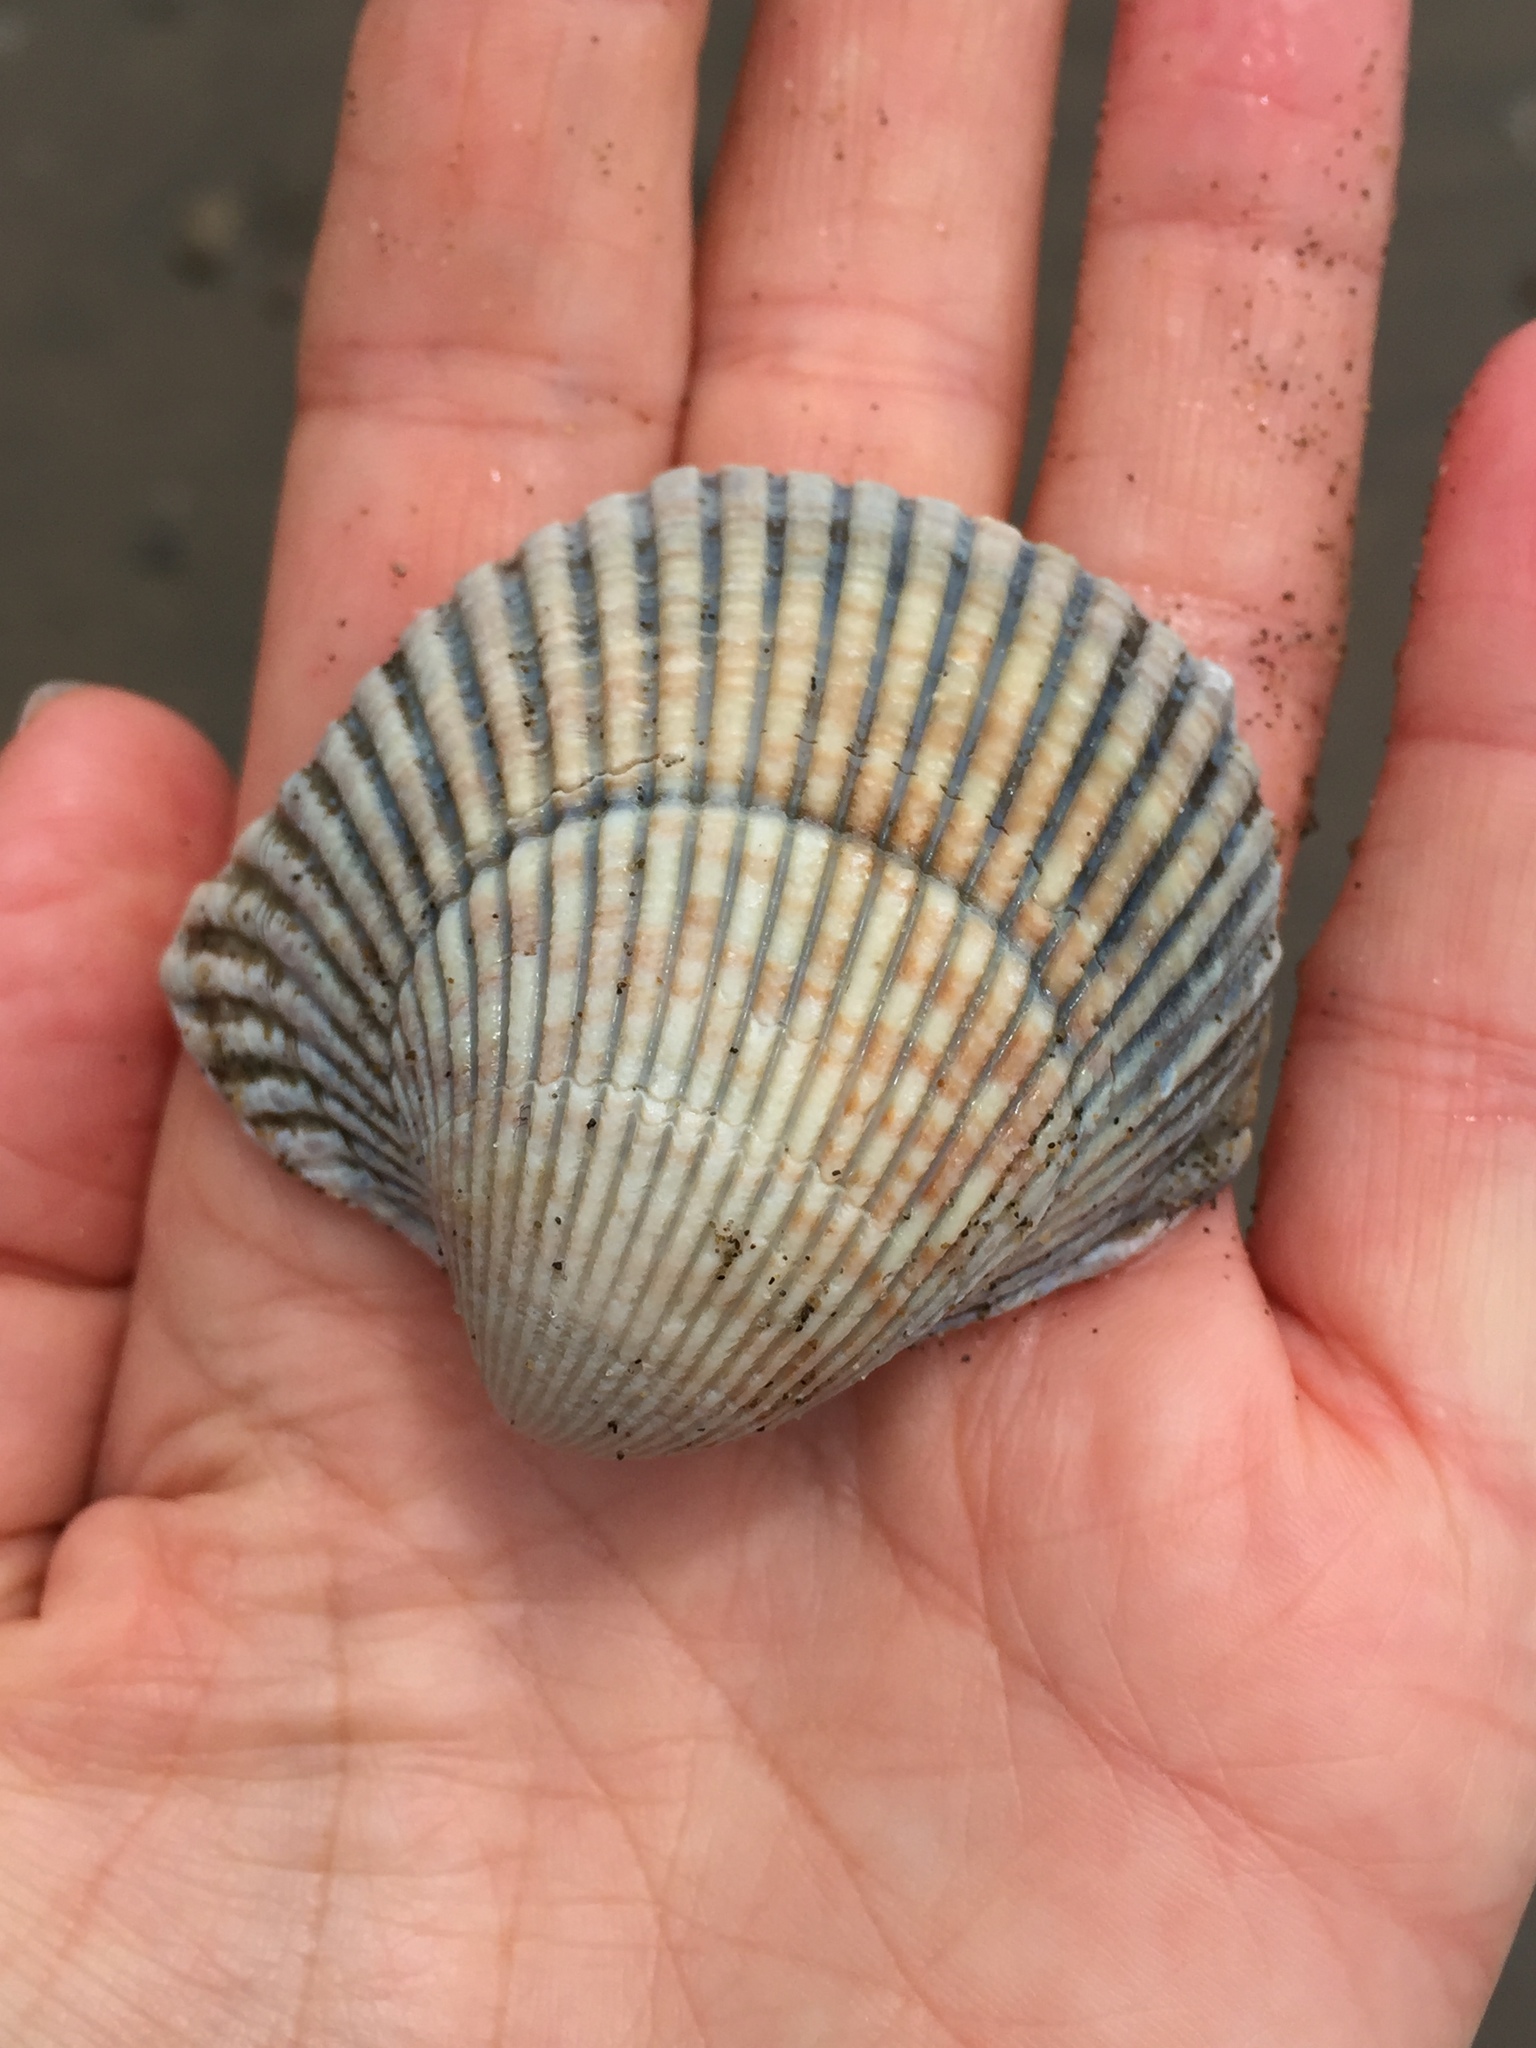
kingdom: Animalia
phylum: Mollusca
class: Bivalvia
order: Cardiida
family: Cardiidae
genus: Clinocardium
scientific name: Clinocardium nuttallii
